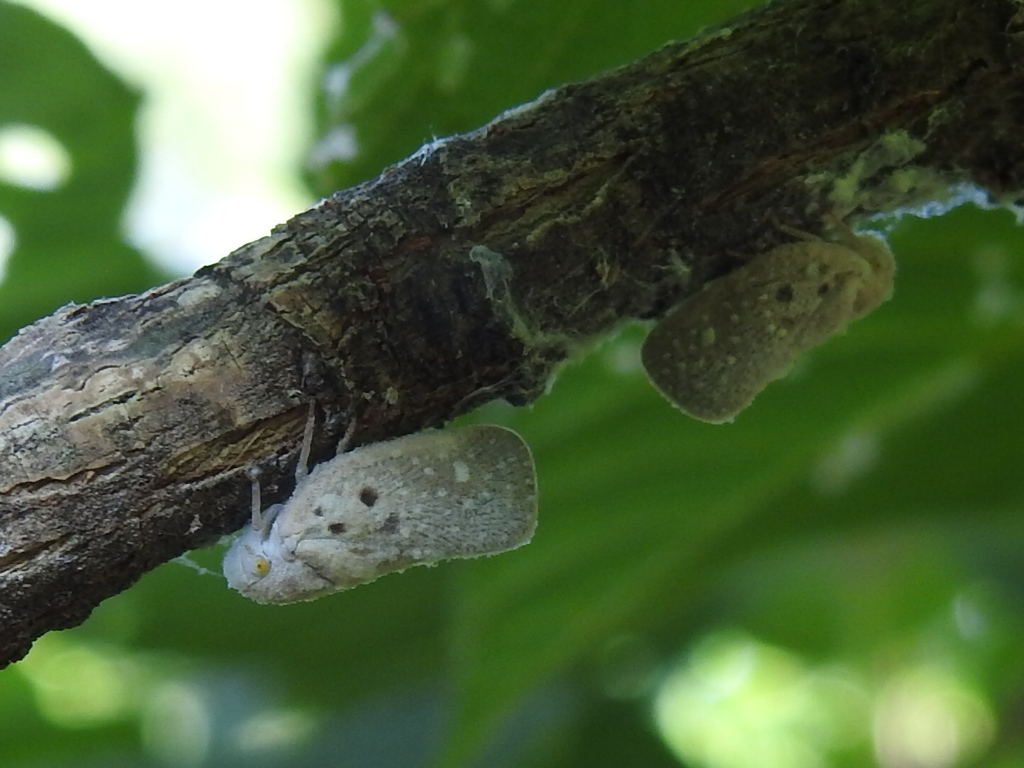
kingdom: Animalia
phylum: Arthropoda
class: Insecta
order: Hemiptera
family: Flatidae
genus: Metcalfa
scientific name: Metcalfa pruinosa
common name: Citrus flatid planthopper
